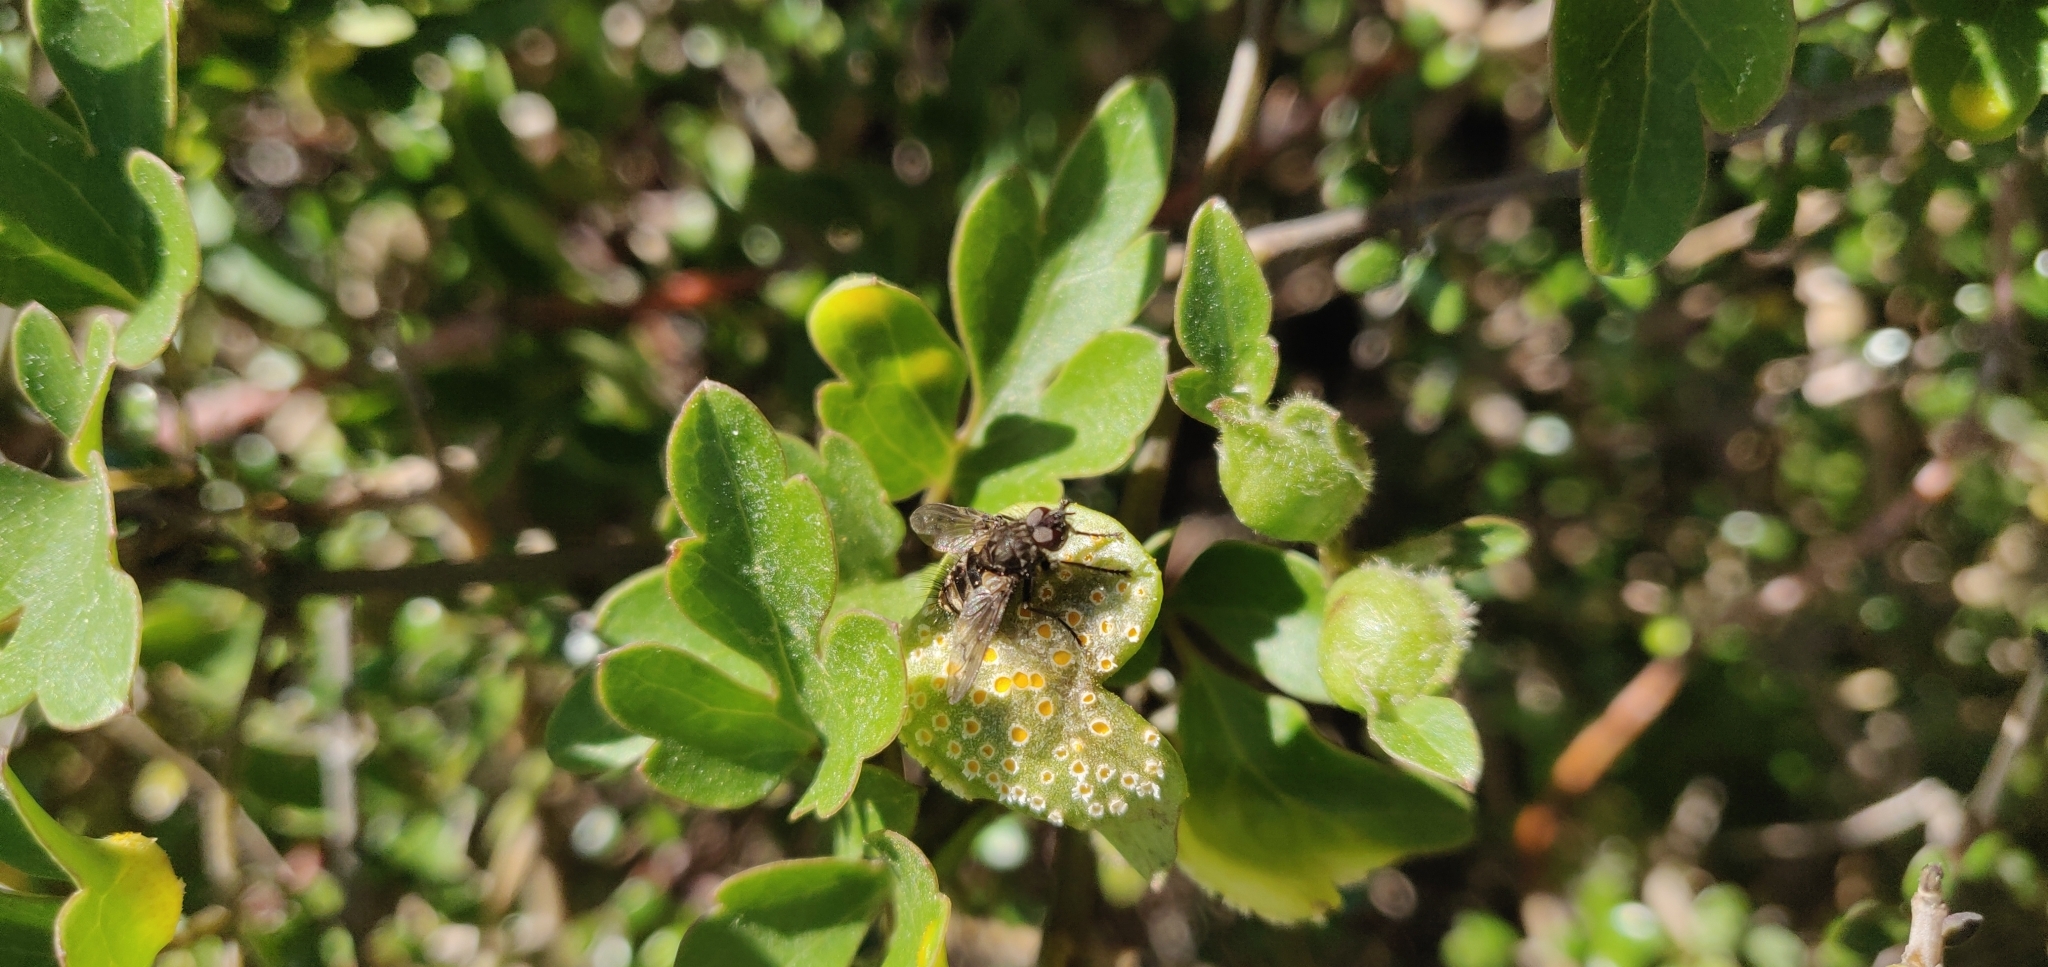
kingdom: Plantae
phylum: Tracheophyta
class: Magnoliopsida
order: Ranunculales
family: Ranunculaceae
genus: Clematis
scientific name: Clematis forsteri
